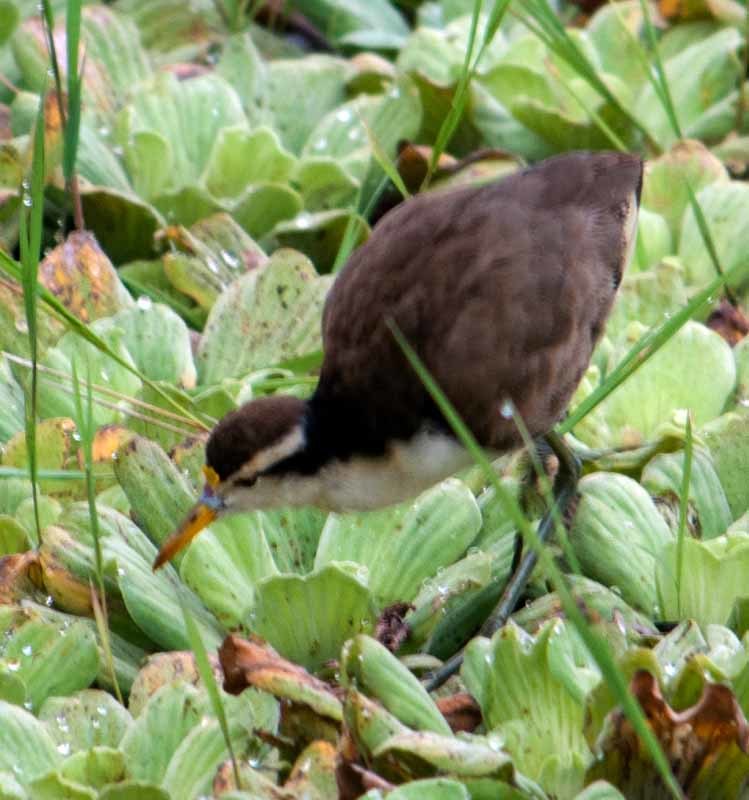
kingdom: Animalia
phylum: Chordata
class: Aves
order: Charadriiformes
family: Jacanidae
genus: Jacana
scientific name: Jacana spinosa
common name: Northern jacana
